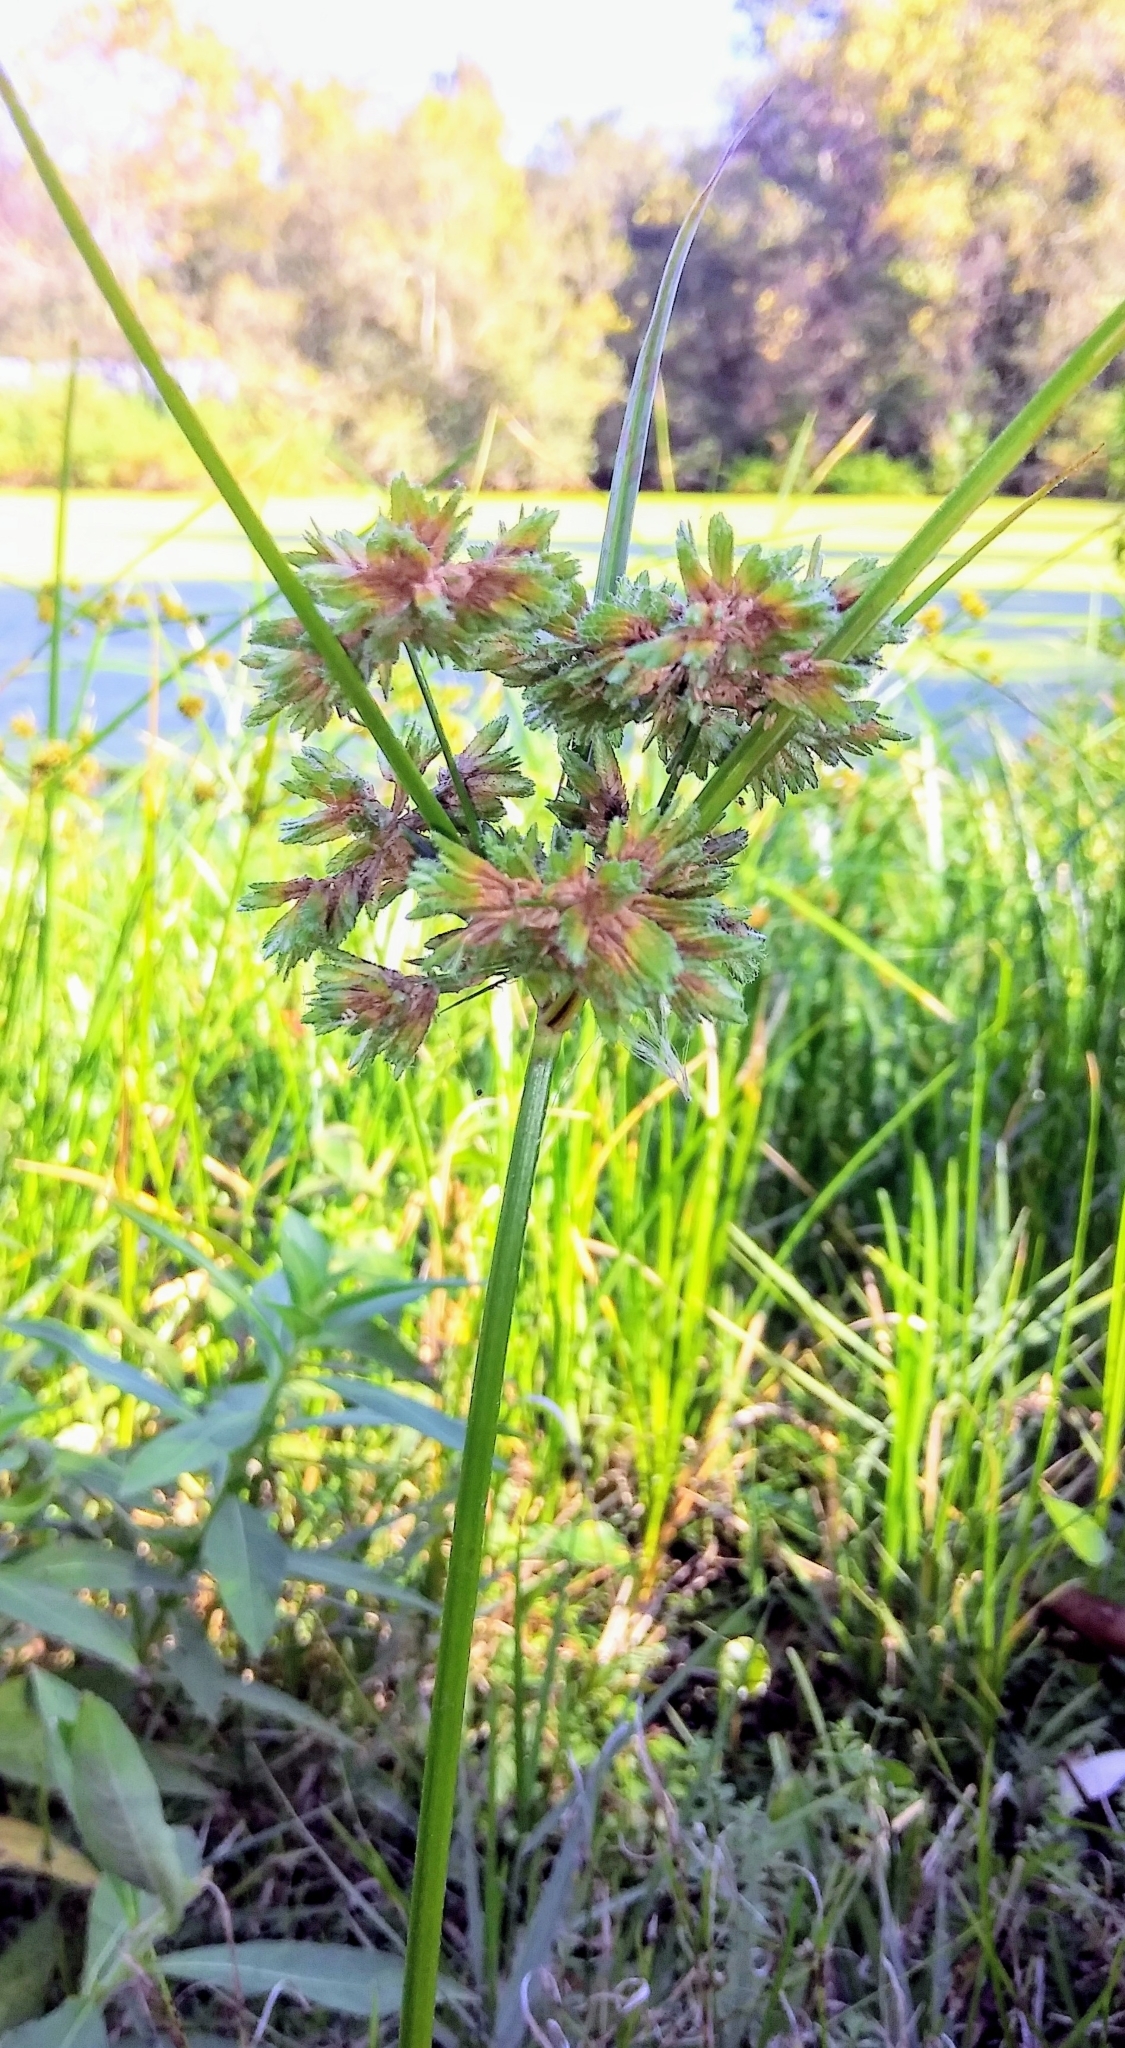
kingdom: Plantae
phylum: Tracheophyta
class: Liliopsida
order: Poales
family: Cyperaceae
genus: Cyperus
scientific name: Cyperus surinamensis
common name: Tropical flat sedge
